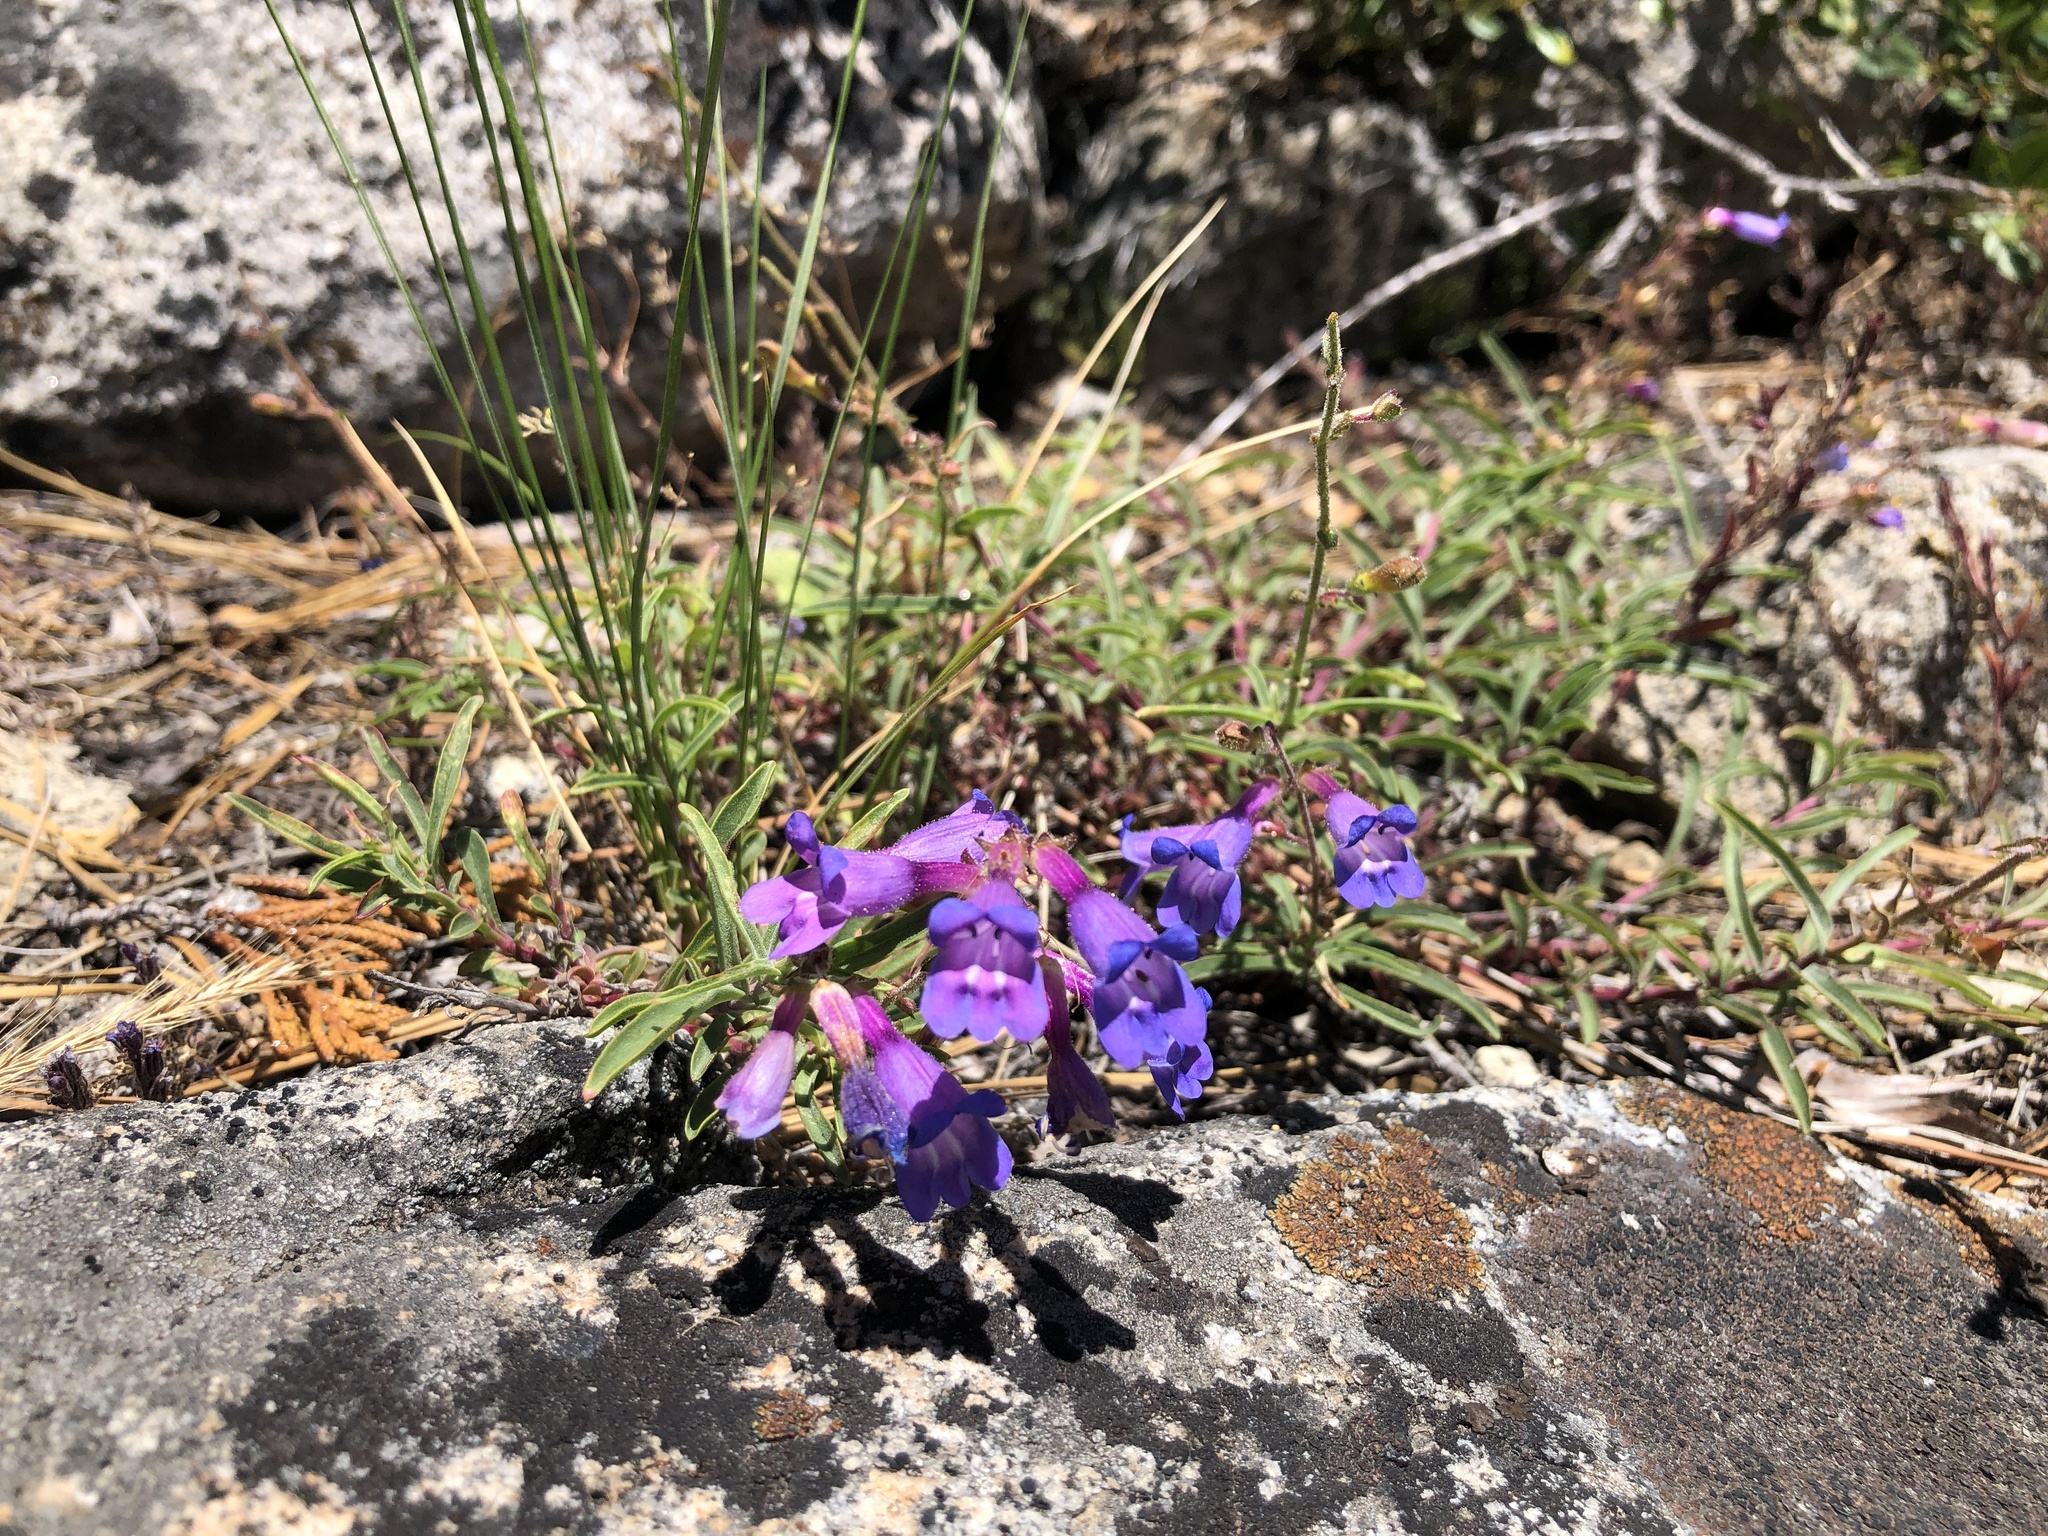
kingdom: Plantae
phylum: Tracheophyta
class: Magnoliopsida
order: Lamiales
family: Plantaginaceae
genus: Penstemon
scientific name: Penstemon laetus
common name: Gay penstemon
